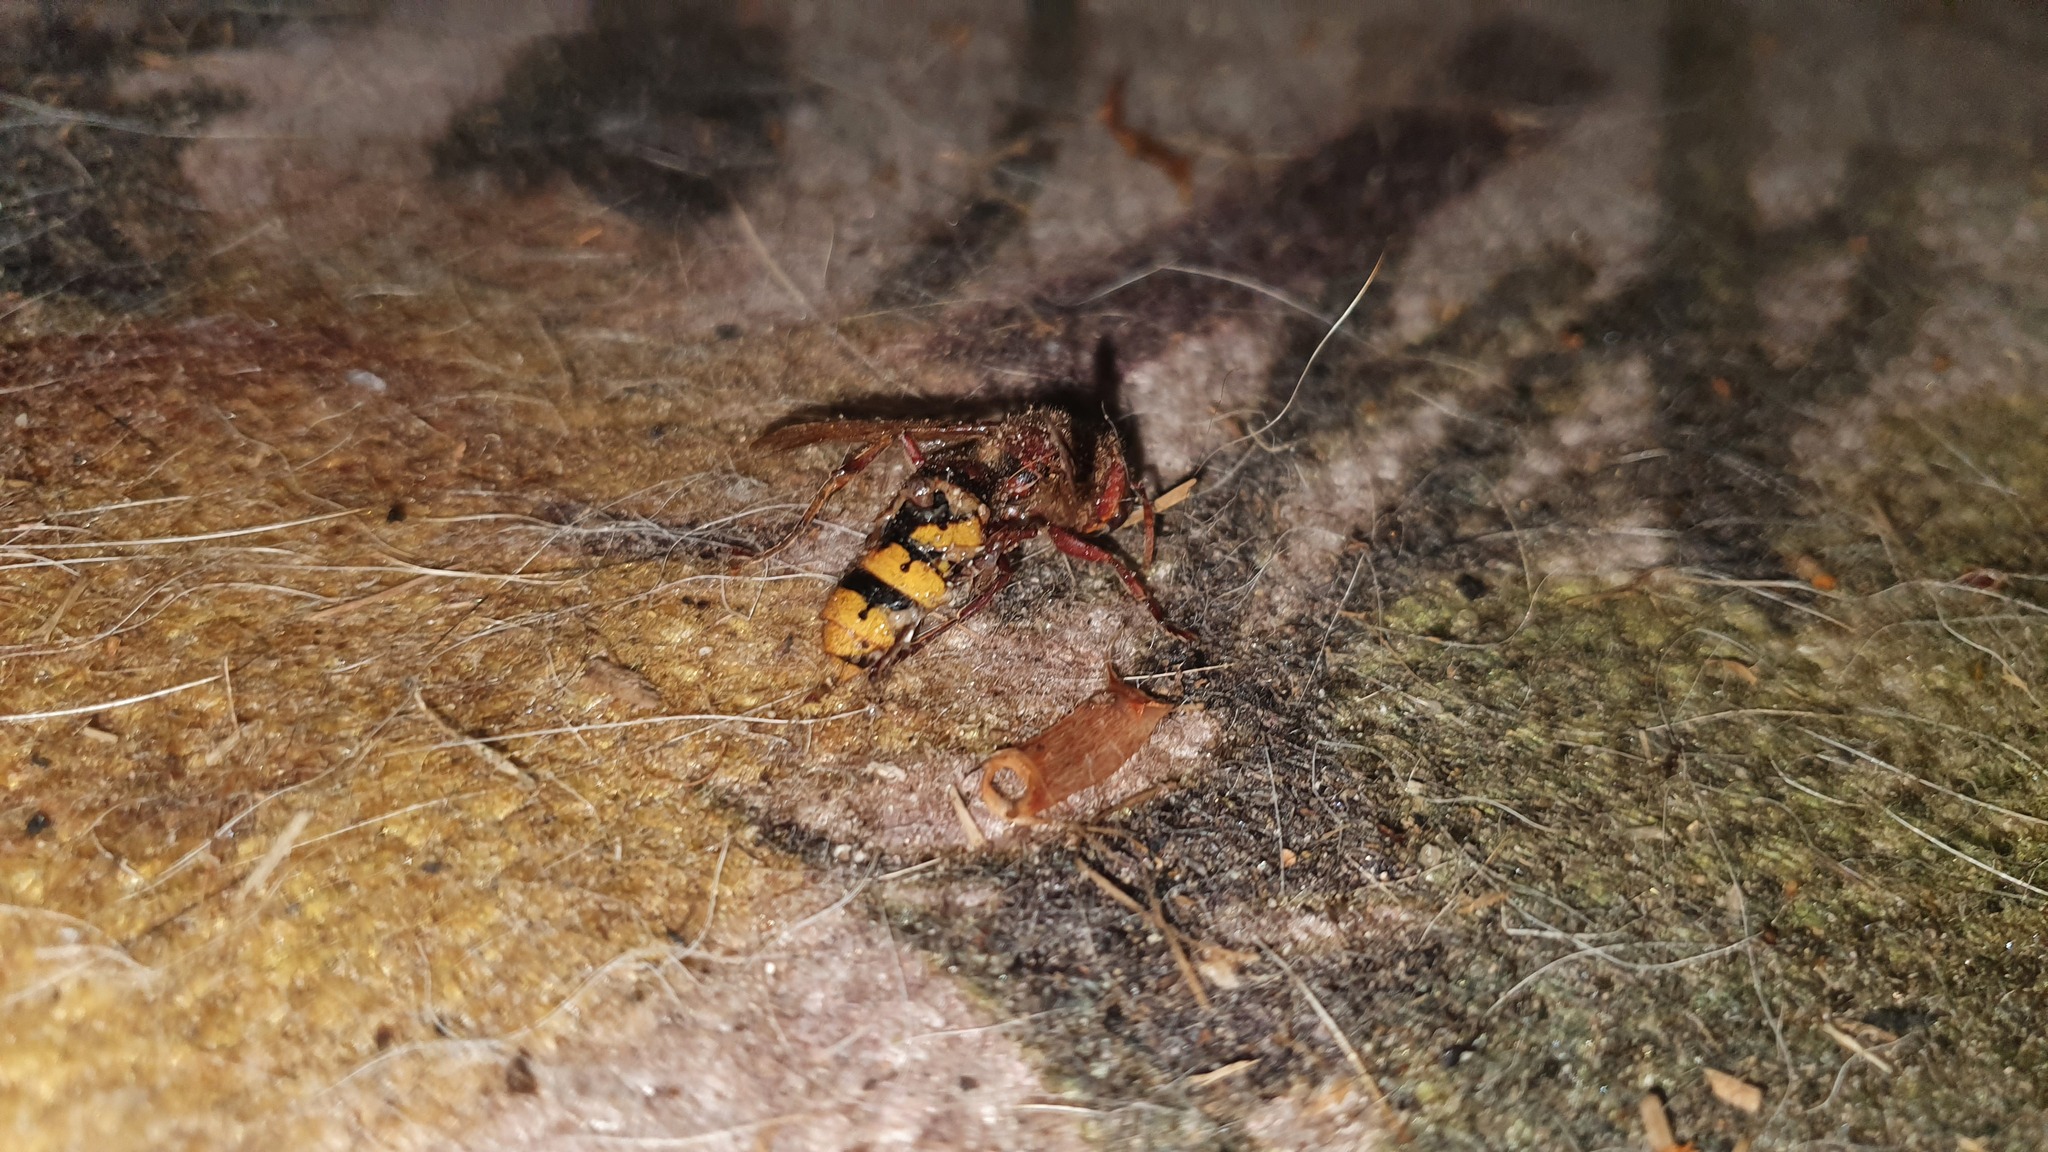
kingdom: Animalia
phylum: Arthropoda
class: Insecta
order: Hymenoptera
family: Vespidae
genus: Vespa
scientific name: Vespa crabro
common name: Hornet
